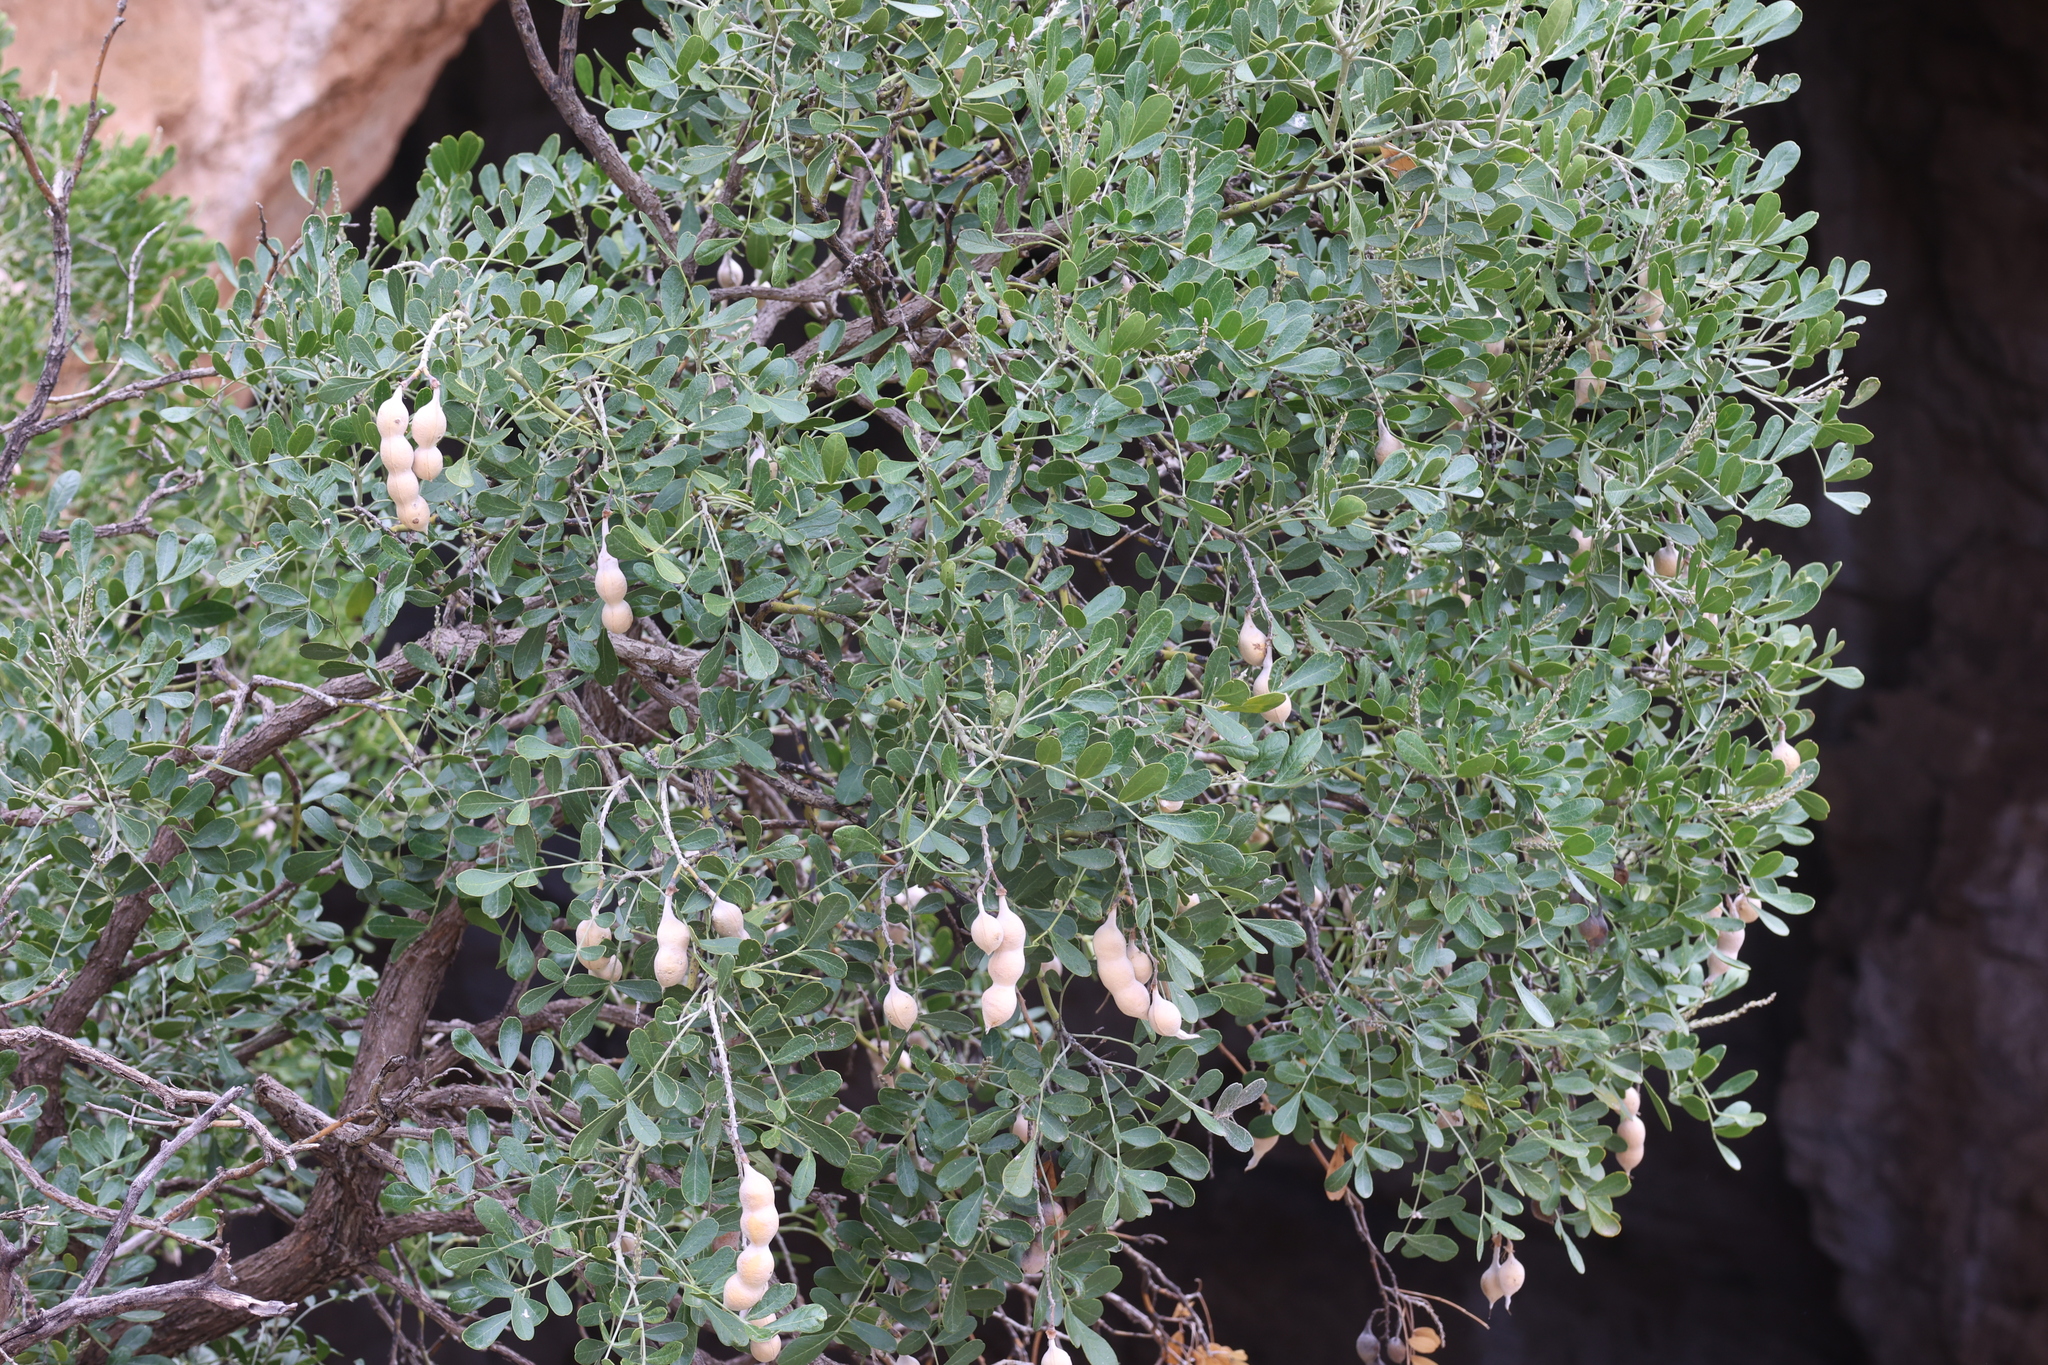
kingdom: Plantae
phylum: Tracheophyta
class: Magnoliopsida
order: Fabales
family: Fabaceae
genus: Dermatophyllum
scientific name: Dermatophyllum secundiflorum
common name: Texas-mountain-laurel
